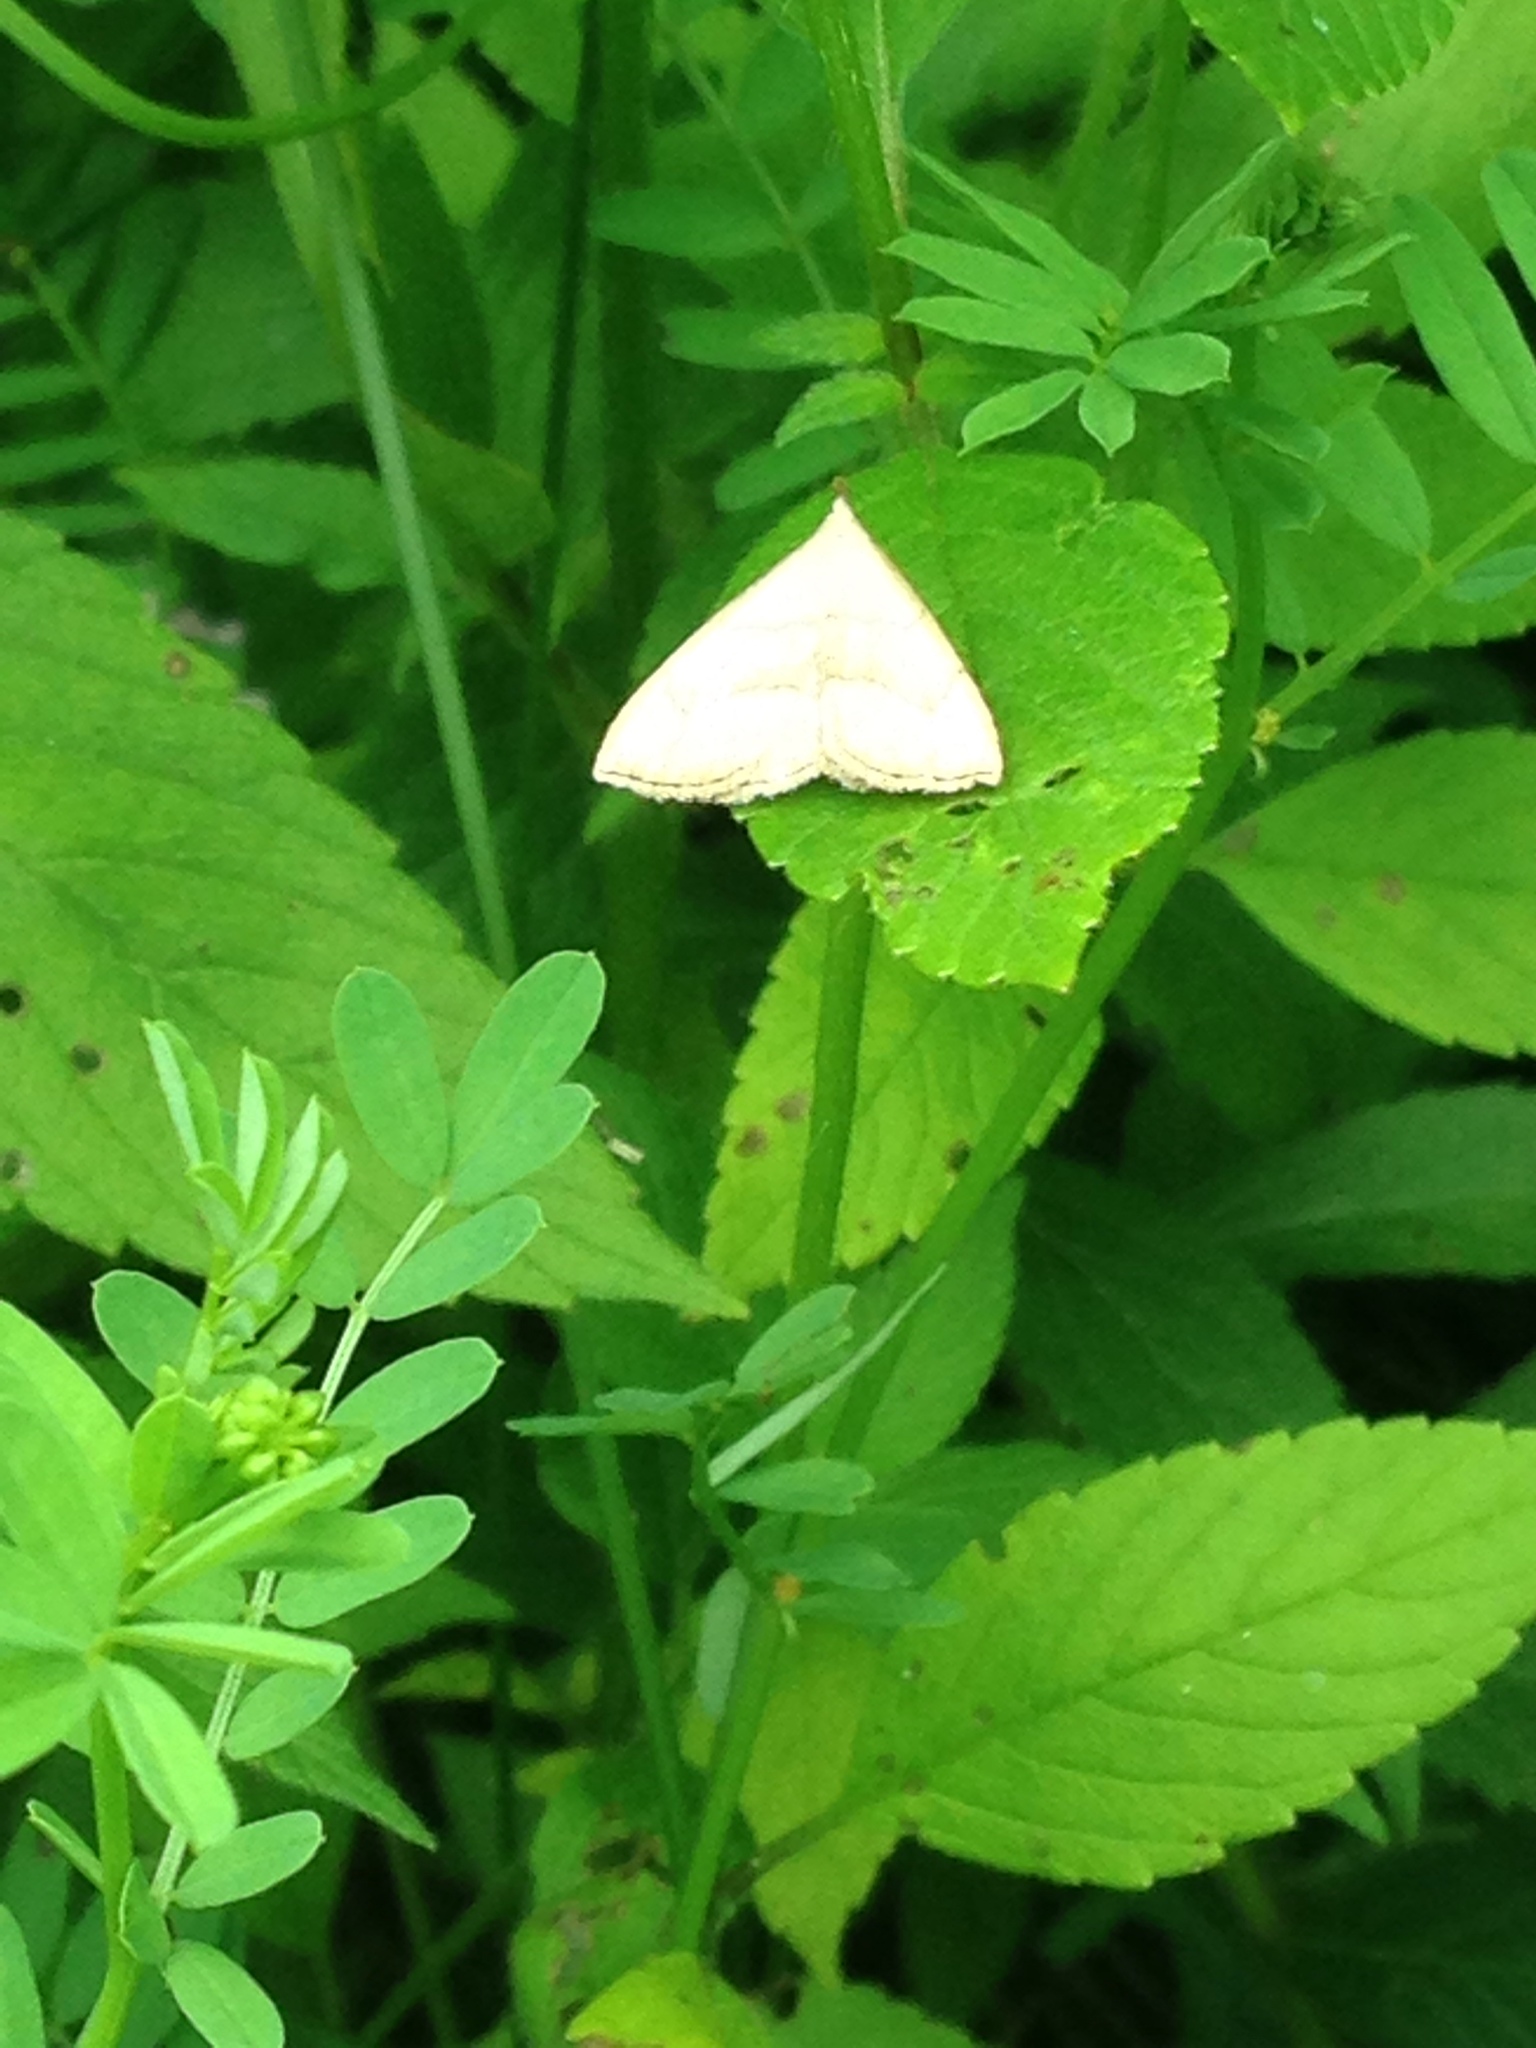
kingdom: Animalia
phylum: Arthropoda
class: Insecta
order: Lepidoptera
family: Erebidae
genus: Macrochilo
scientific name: Macrochilo litophora
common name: Brown-lined owlet
